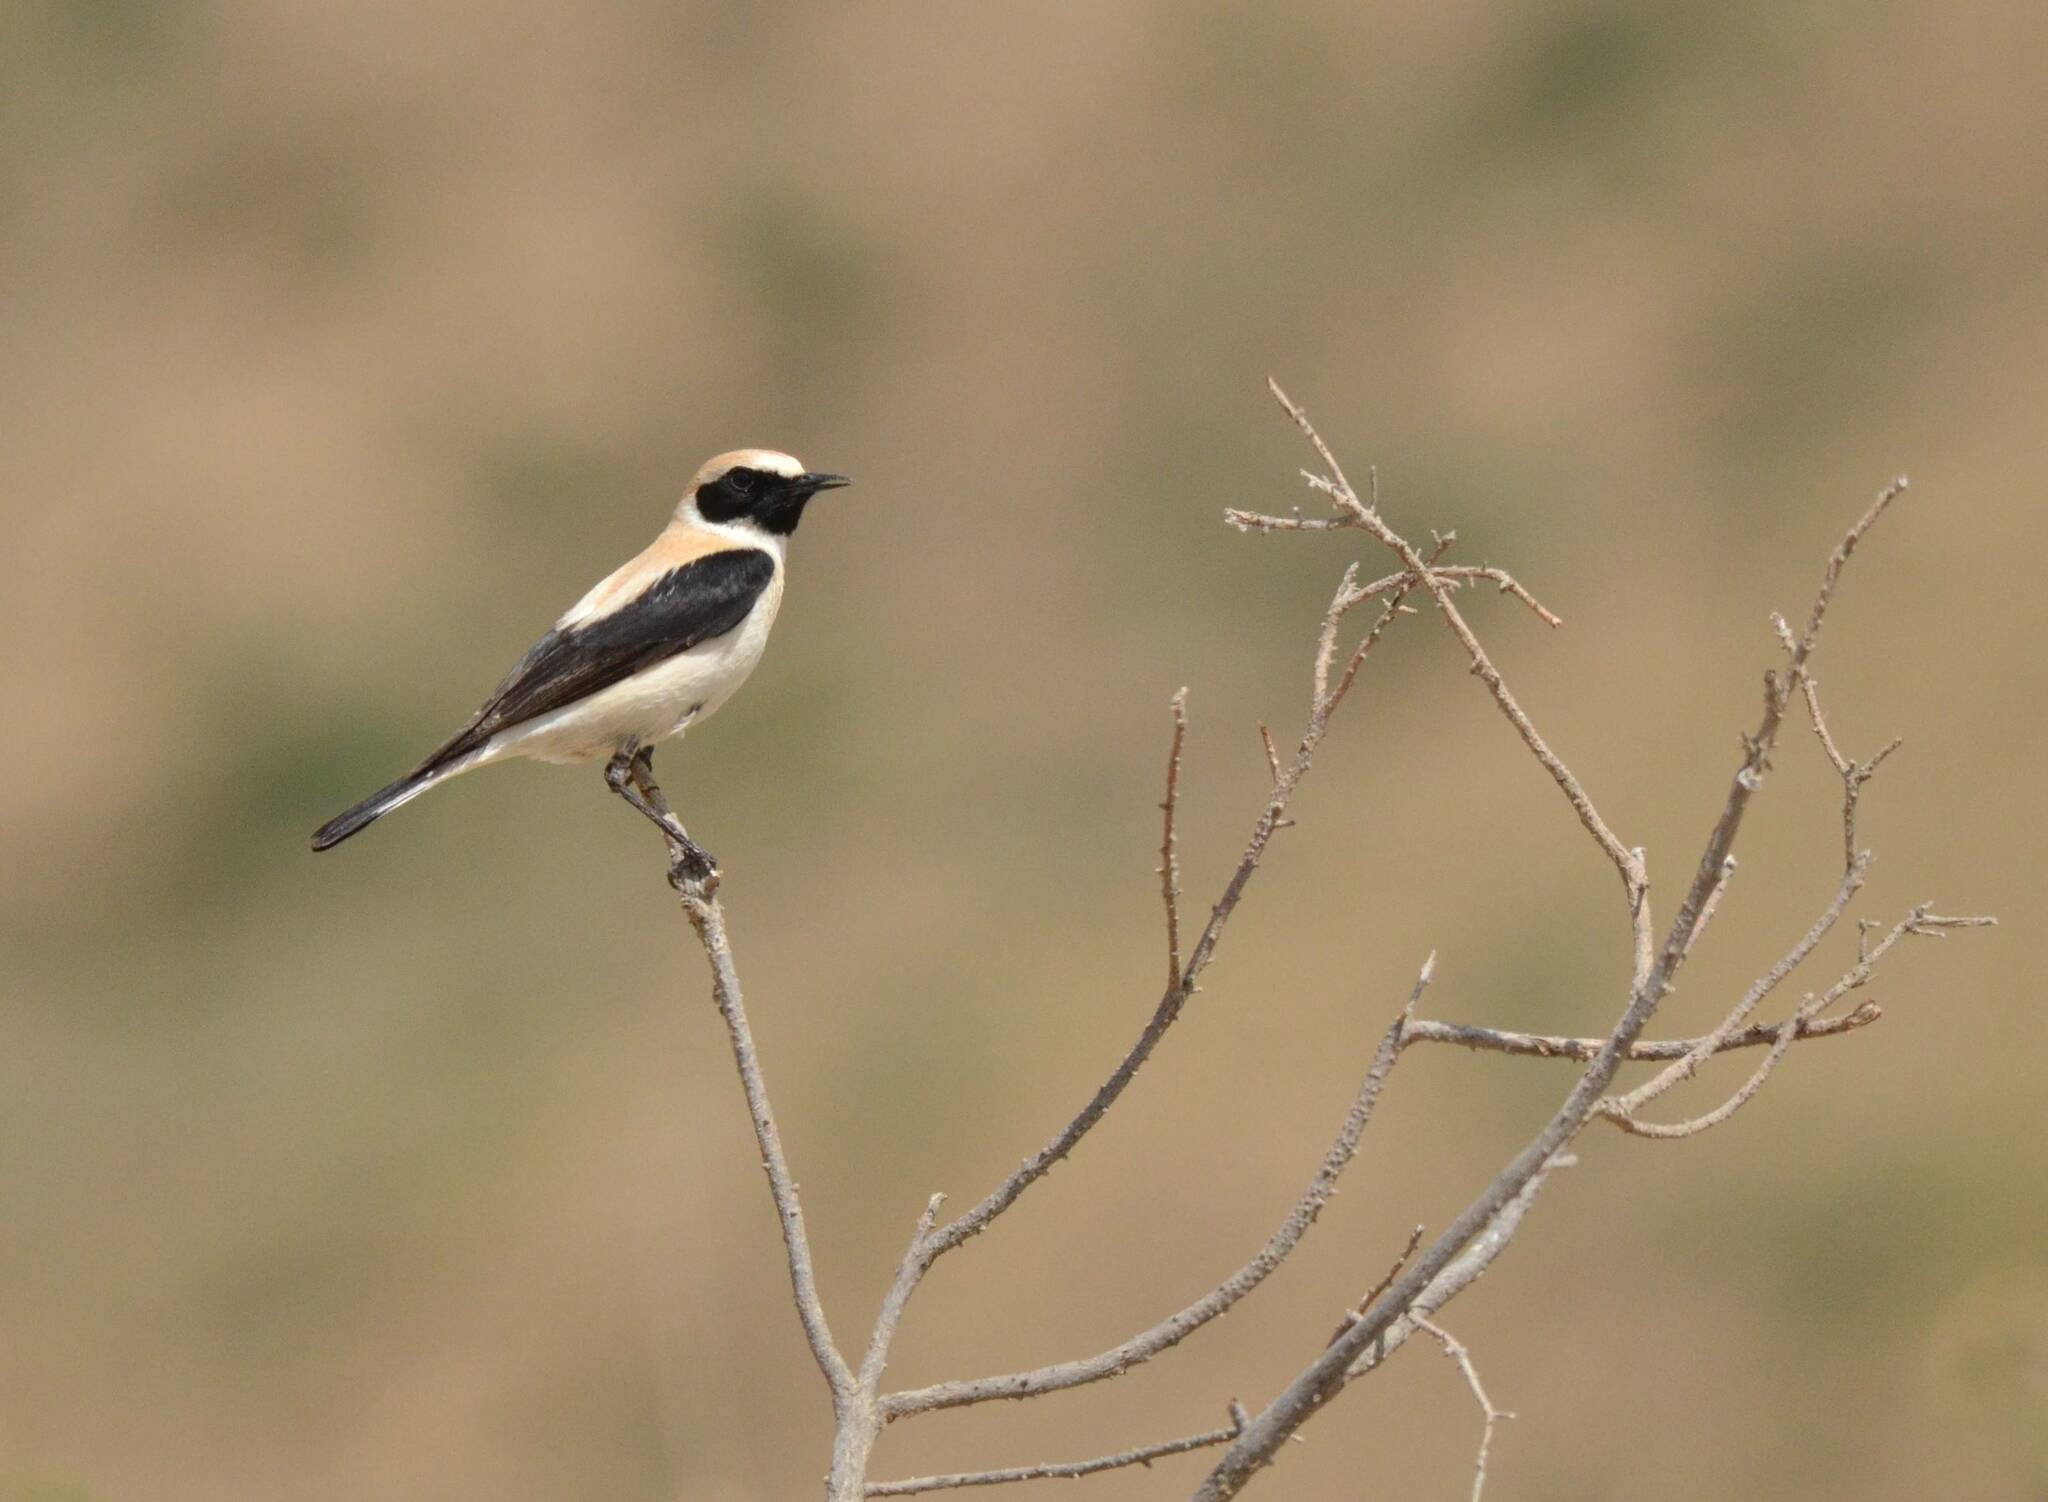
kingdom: Animalia
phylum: Chordata
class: Aves
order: Passeriformes
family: Muscicapidae
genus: Oenanthe
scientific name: Oenanthe hispanica
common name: Black-eared wheatear
